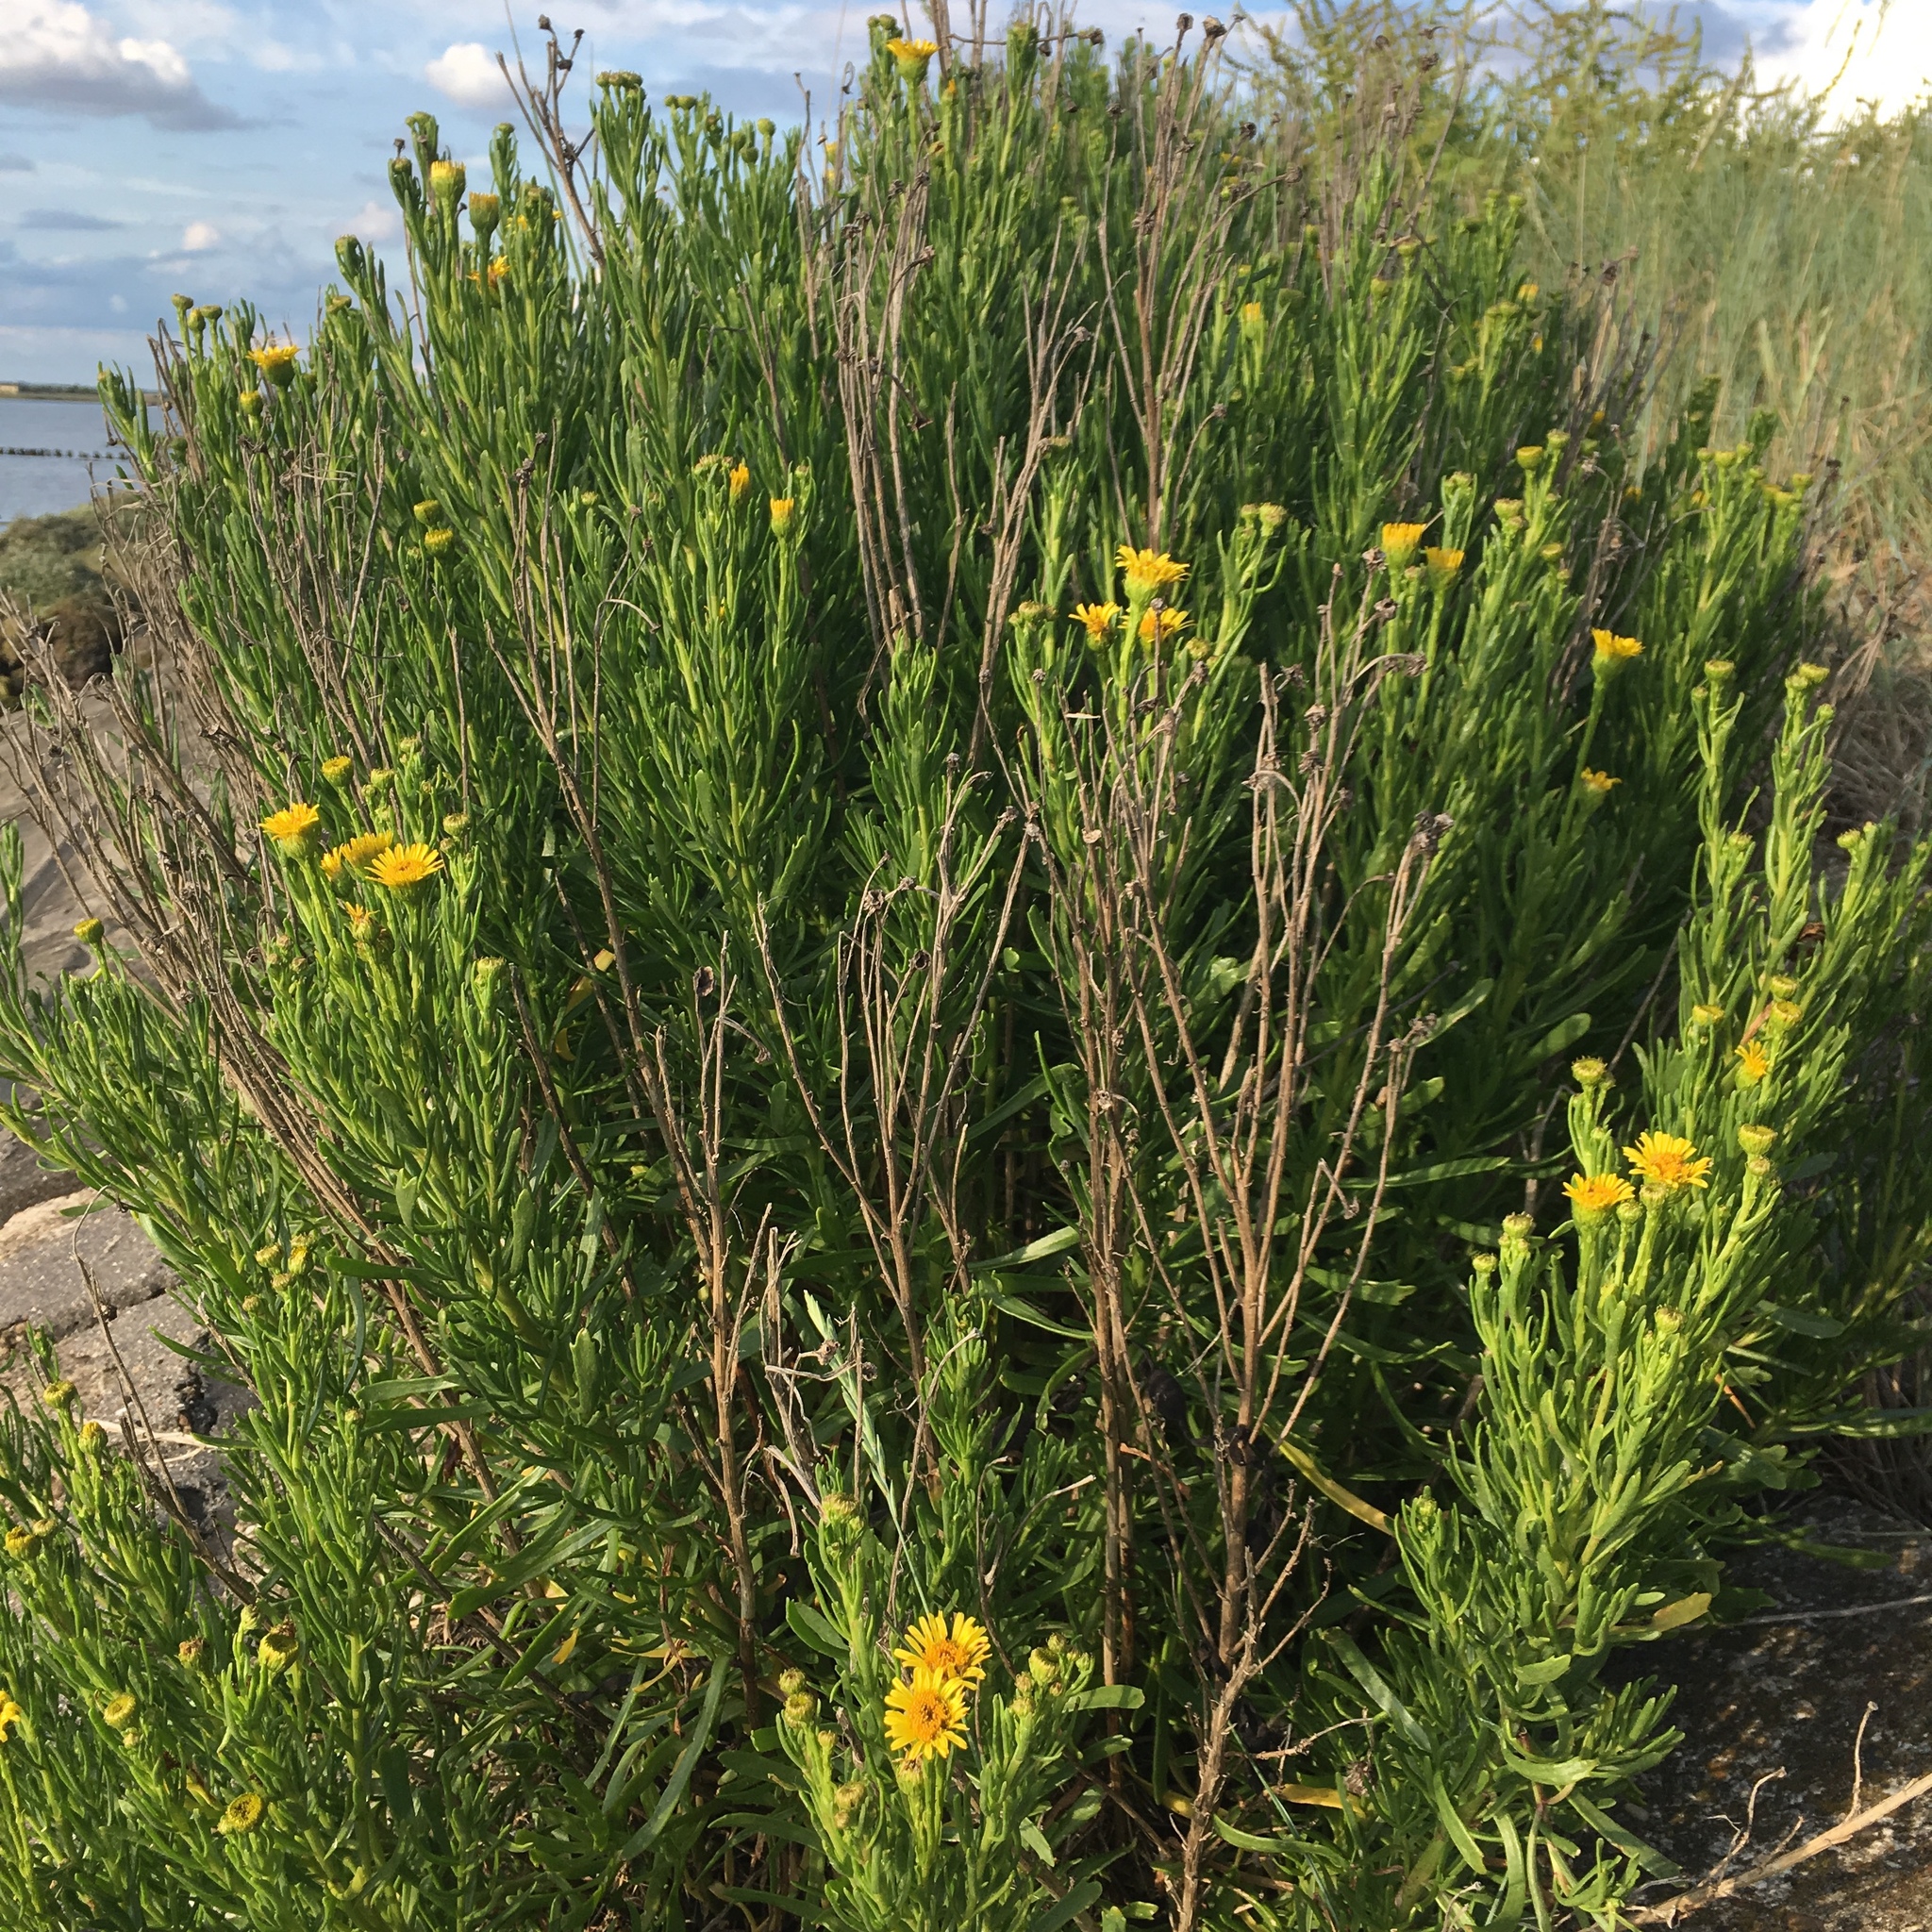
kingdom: Plantae
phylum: Tracheophyta
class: Magnoliopsida
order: Asterales
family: Asteraceae
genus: Limbarda
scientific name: Limbarda crithmoides
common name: Golden samphire
